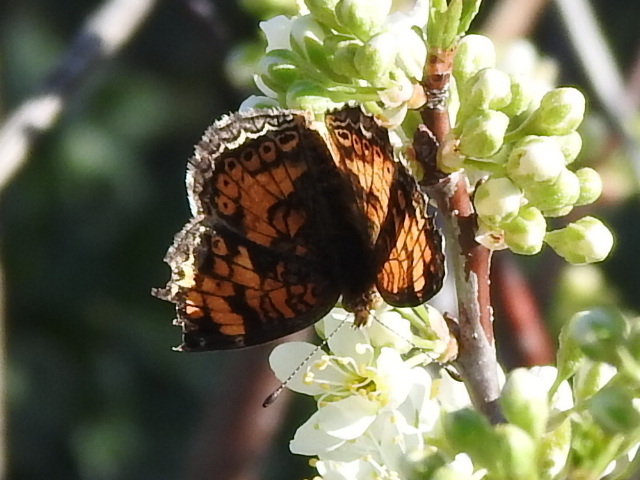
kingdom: Animalia
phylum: Arthropoda
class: Insecta
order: Lepidoptera
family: Nymphalidae
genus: Phyciodes
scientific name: Phyciodes tharos
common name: Pearl crescent
